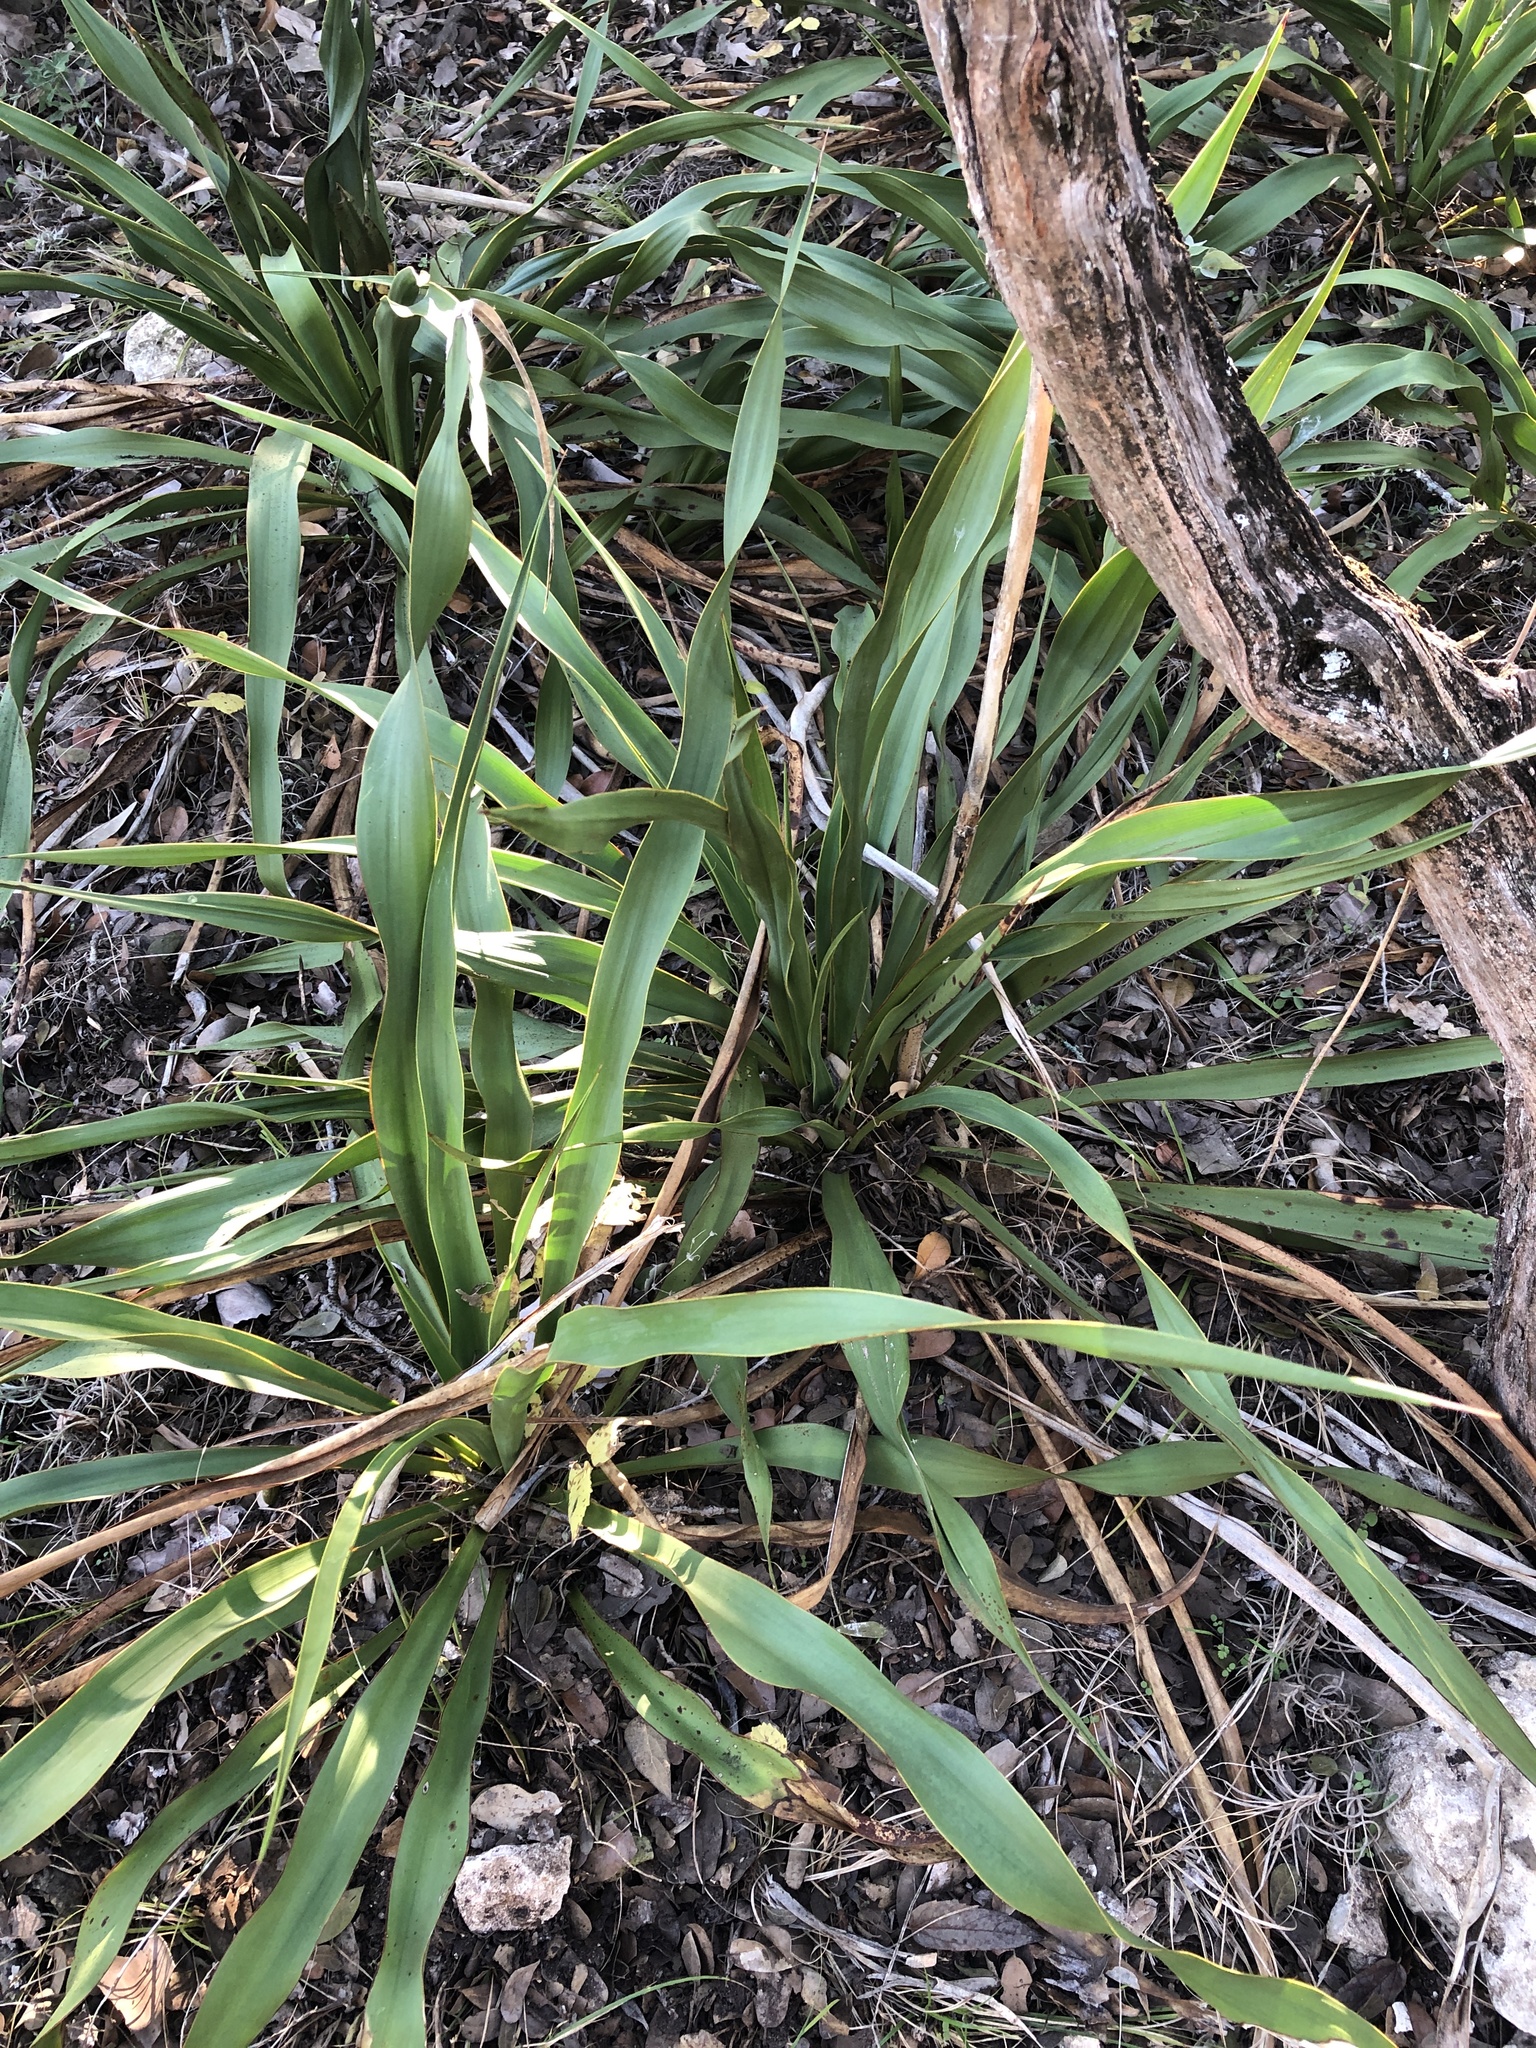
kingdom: Plantae
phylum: Tracheophyta
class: Liliopsida
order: Asparagales
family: Asparagaceae
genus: Yucca
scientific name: Yucca rupicola
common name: Twisted-leaf spanish-dagger
